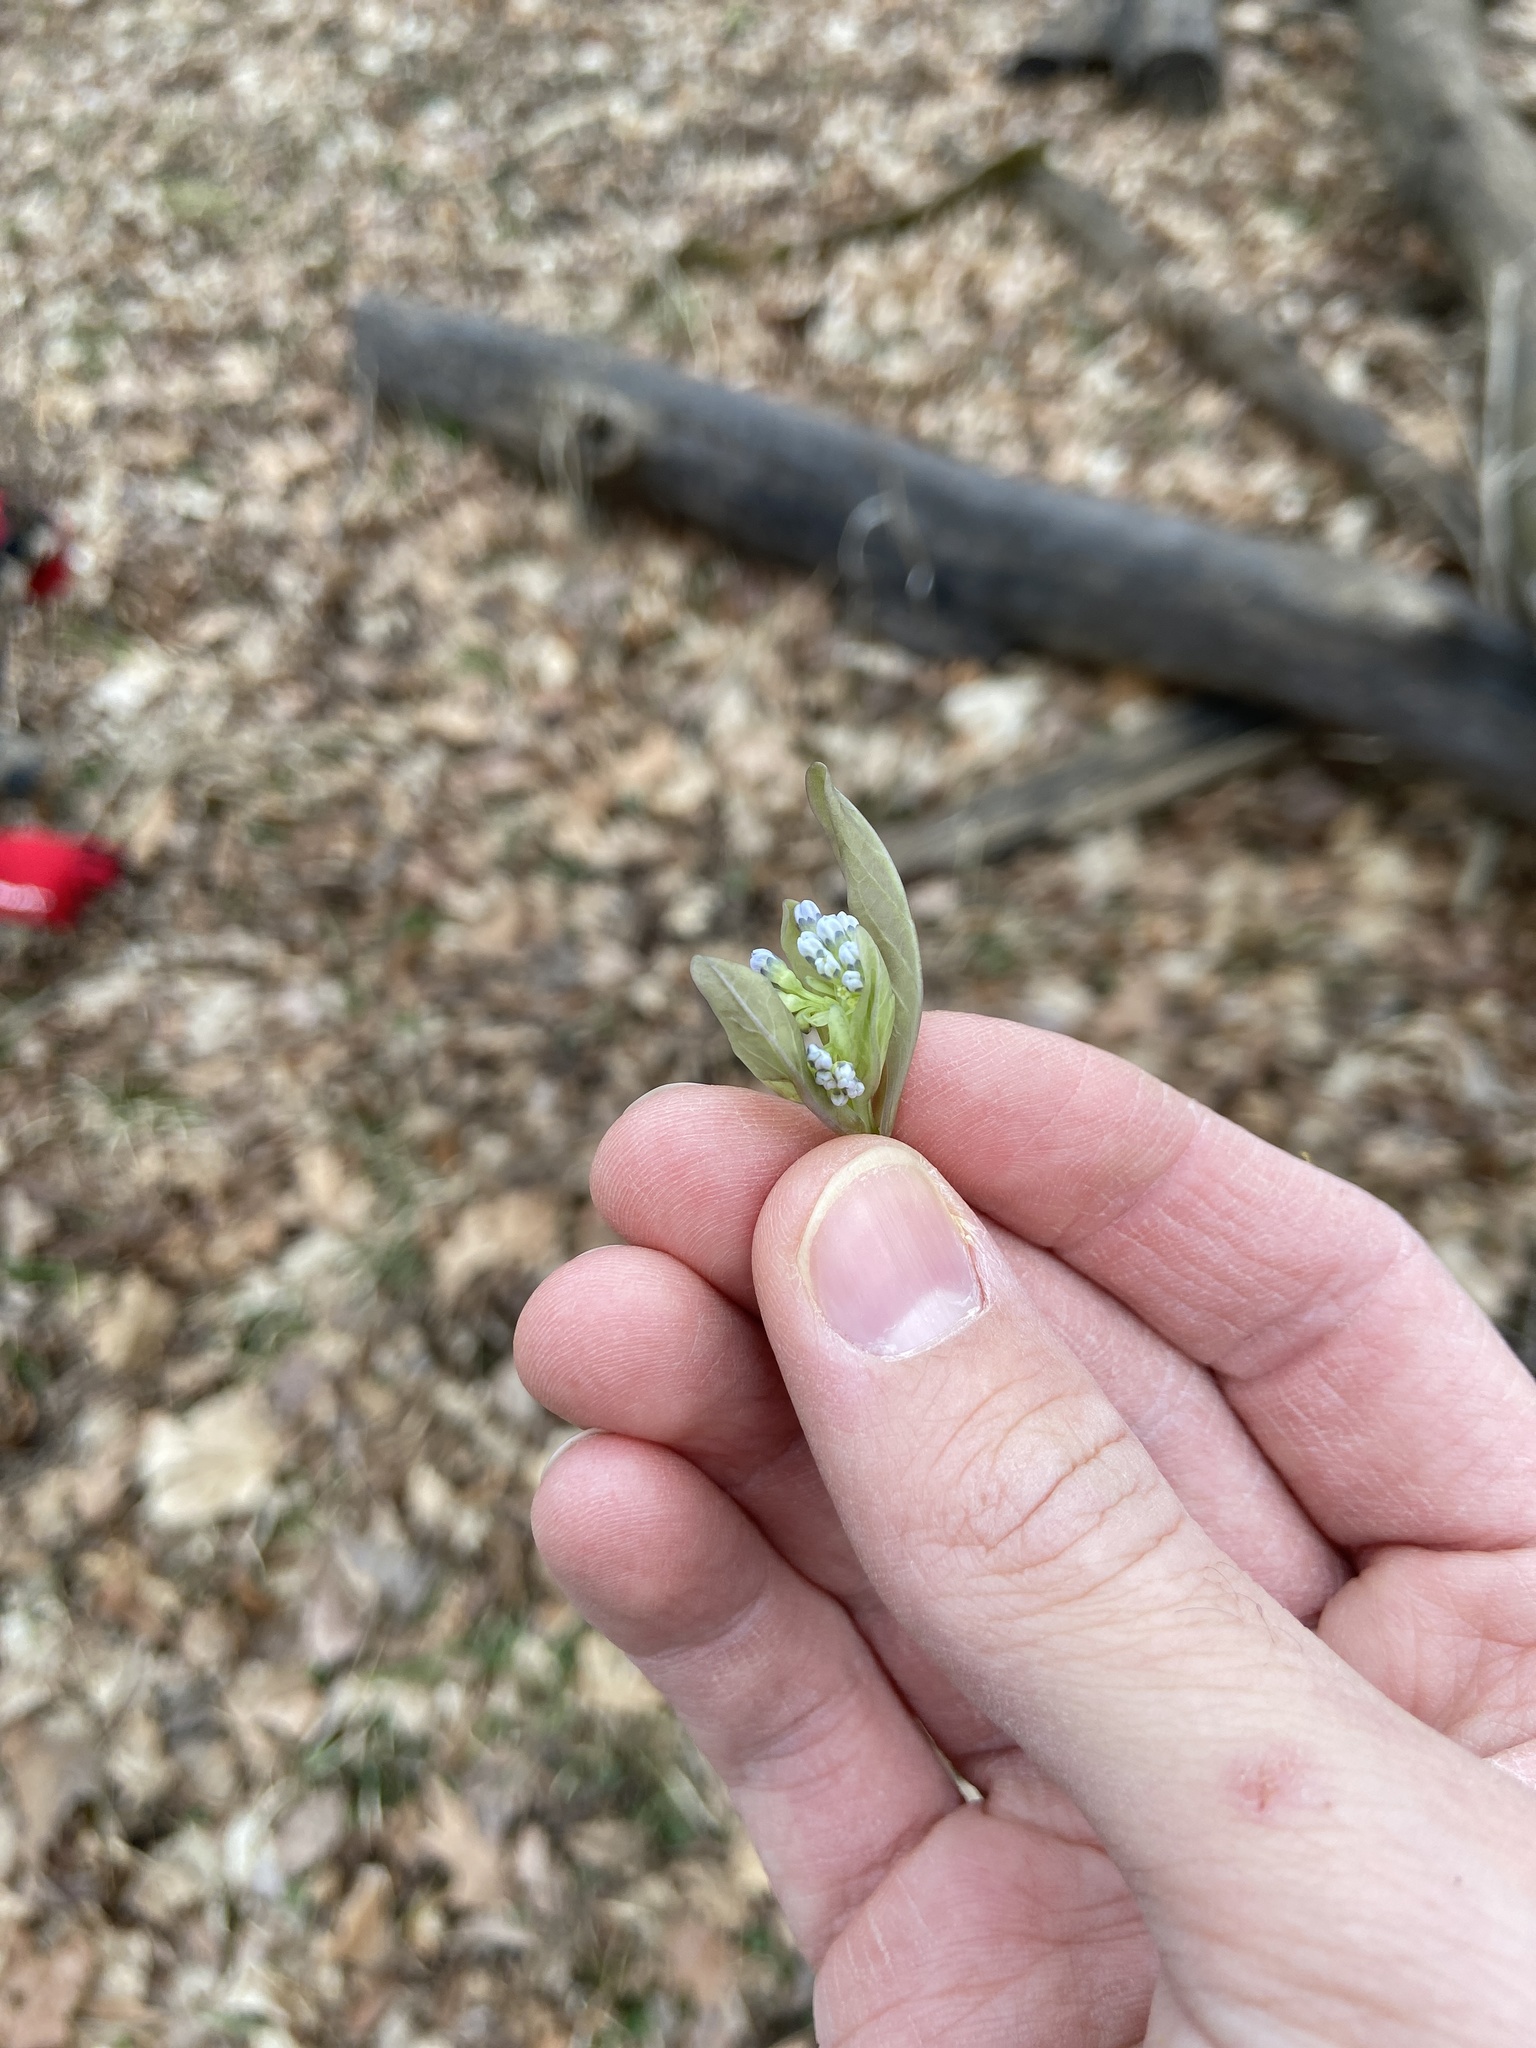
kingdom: Plantae
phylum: Tracheophyta
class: Magnoliopsida
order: Boraginales
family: Boraginaceae
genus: Mertensia
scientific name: Mertensia virginica
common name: Virginia bluebells
